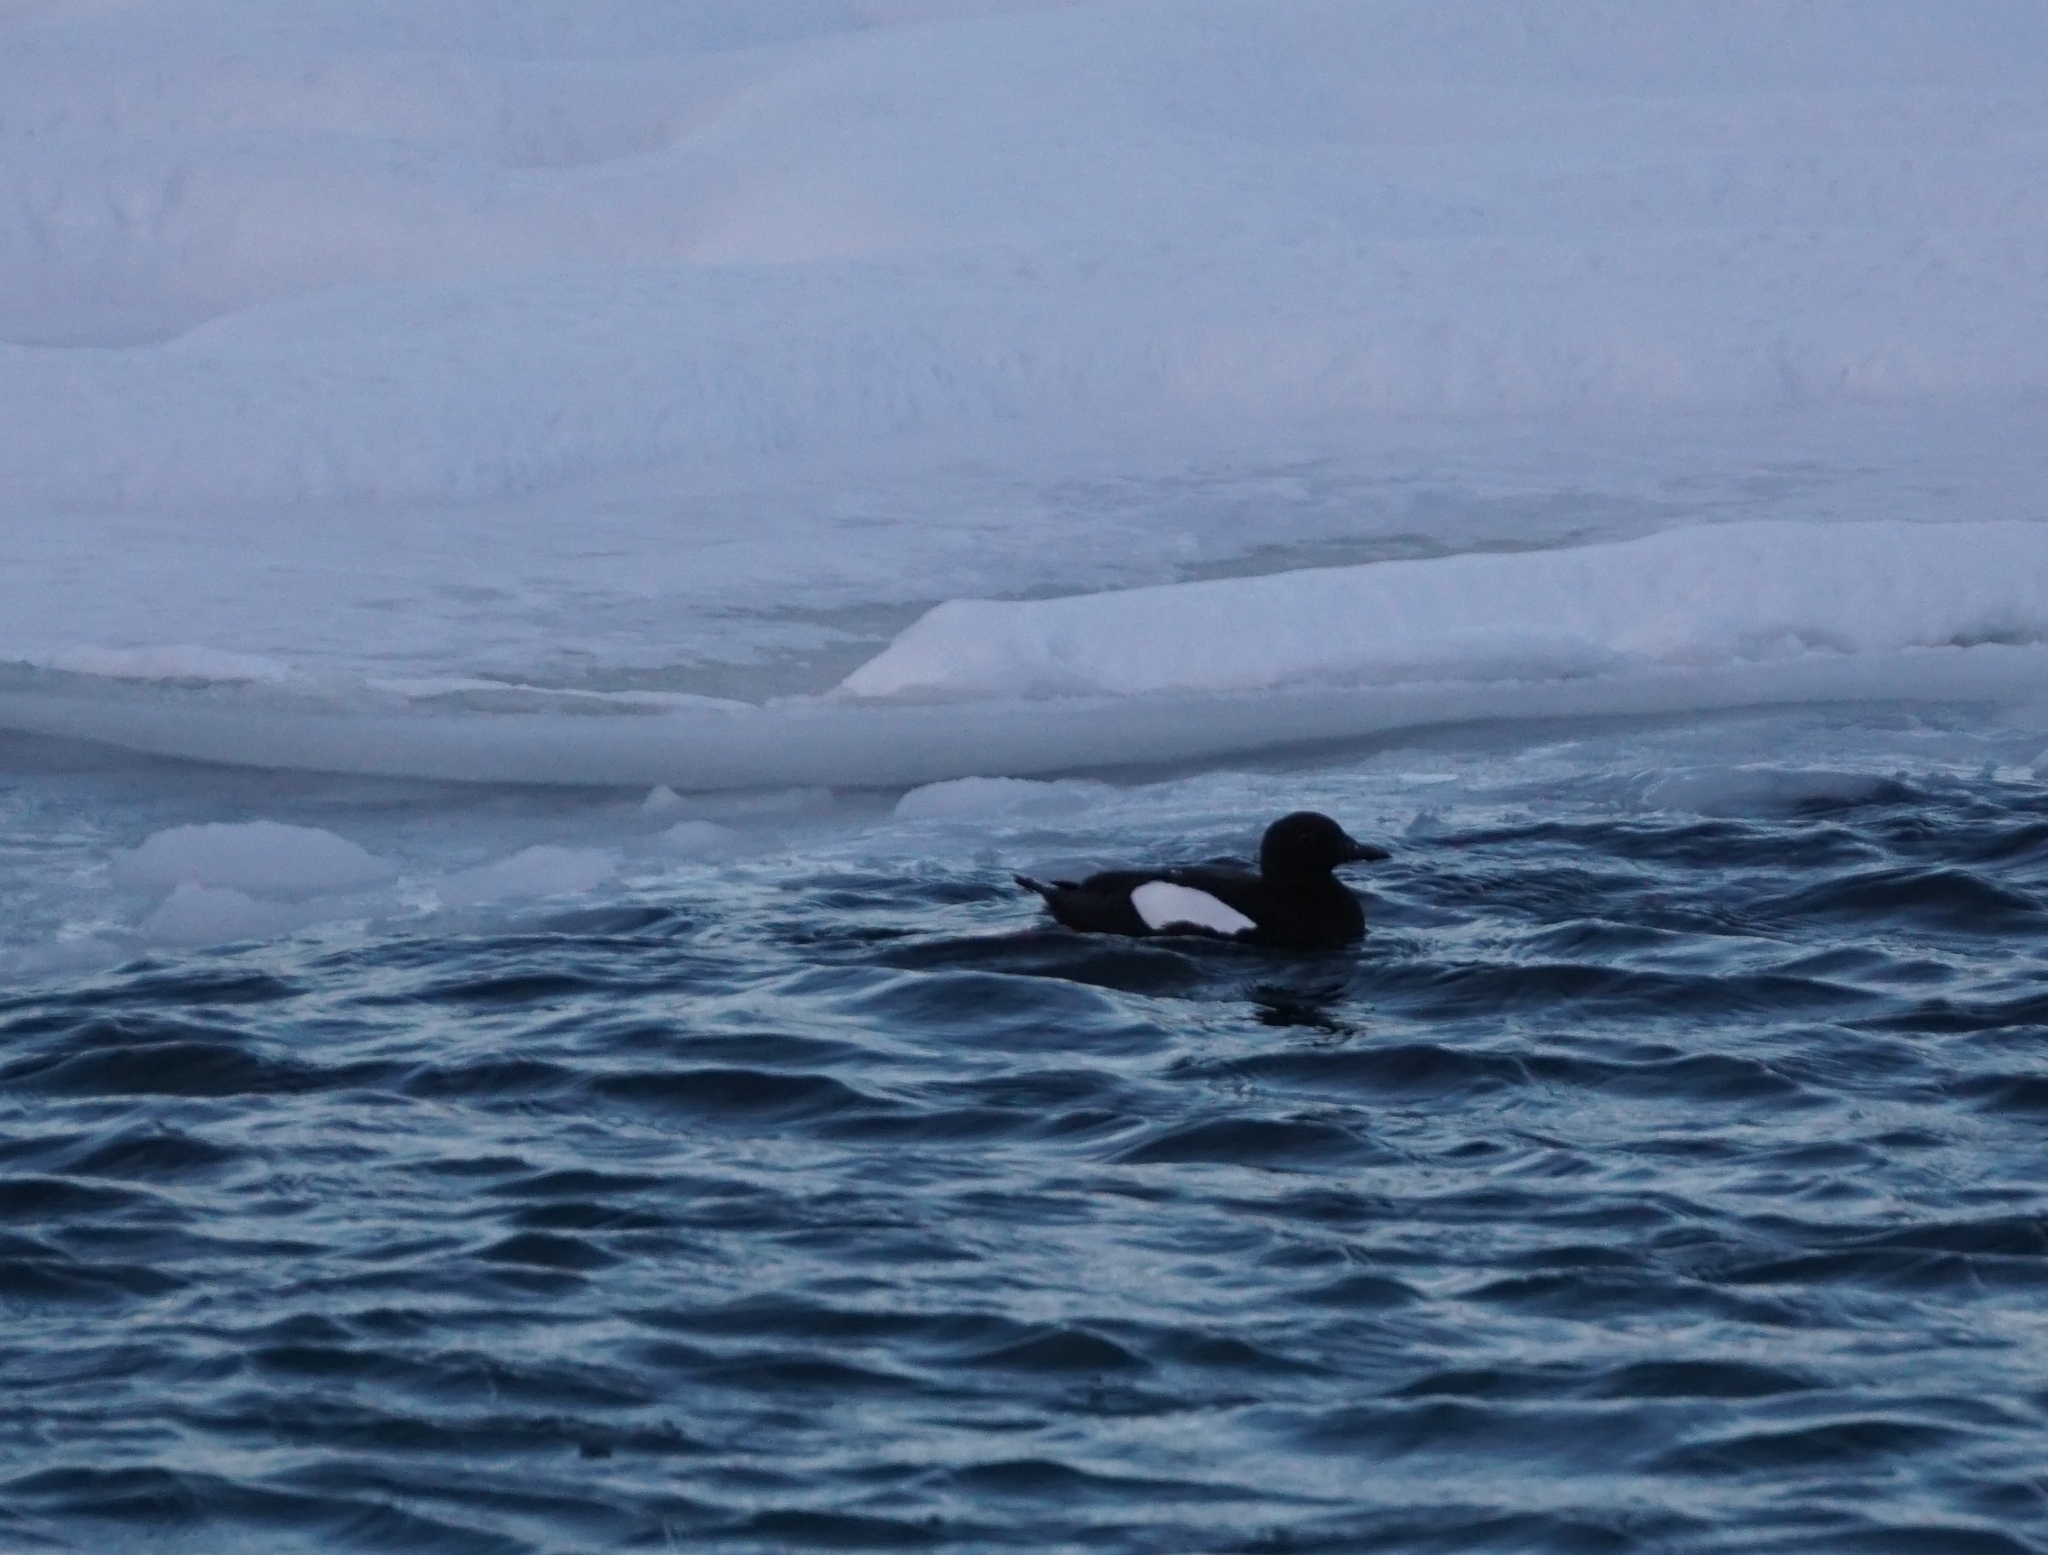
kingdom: Animalia
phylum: Chordata
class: Aves
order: Charadriiformes
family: Alcidae
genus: Cepphus
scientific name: Cepphus grylle
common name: Black guillemot
